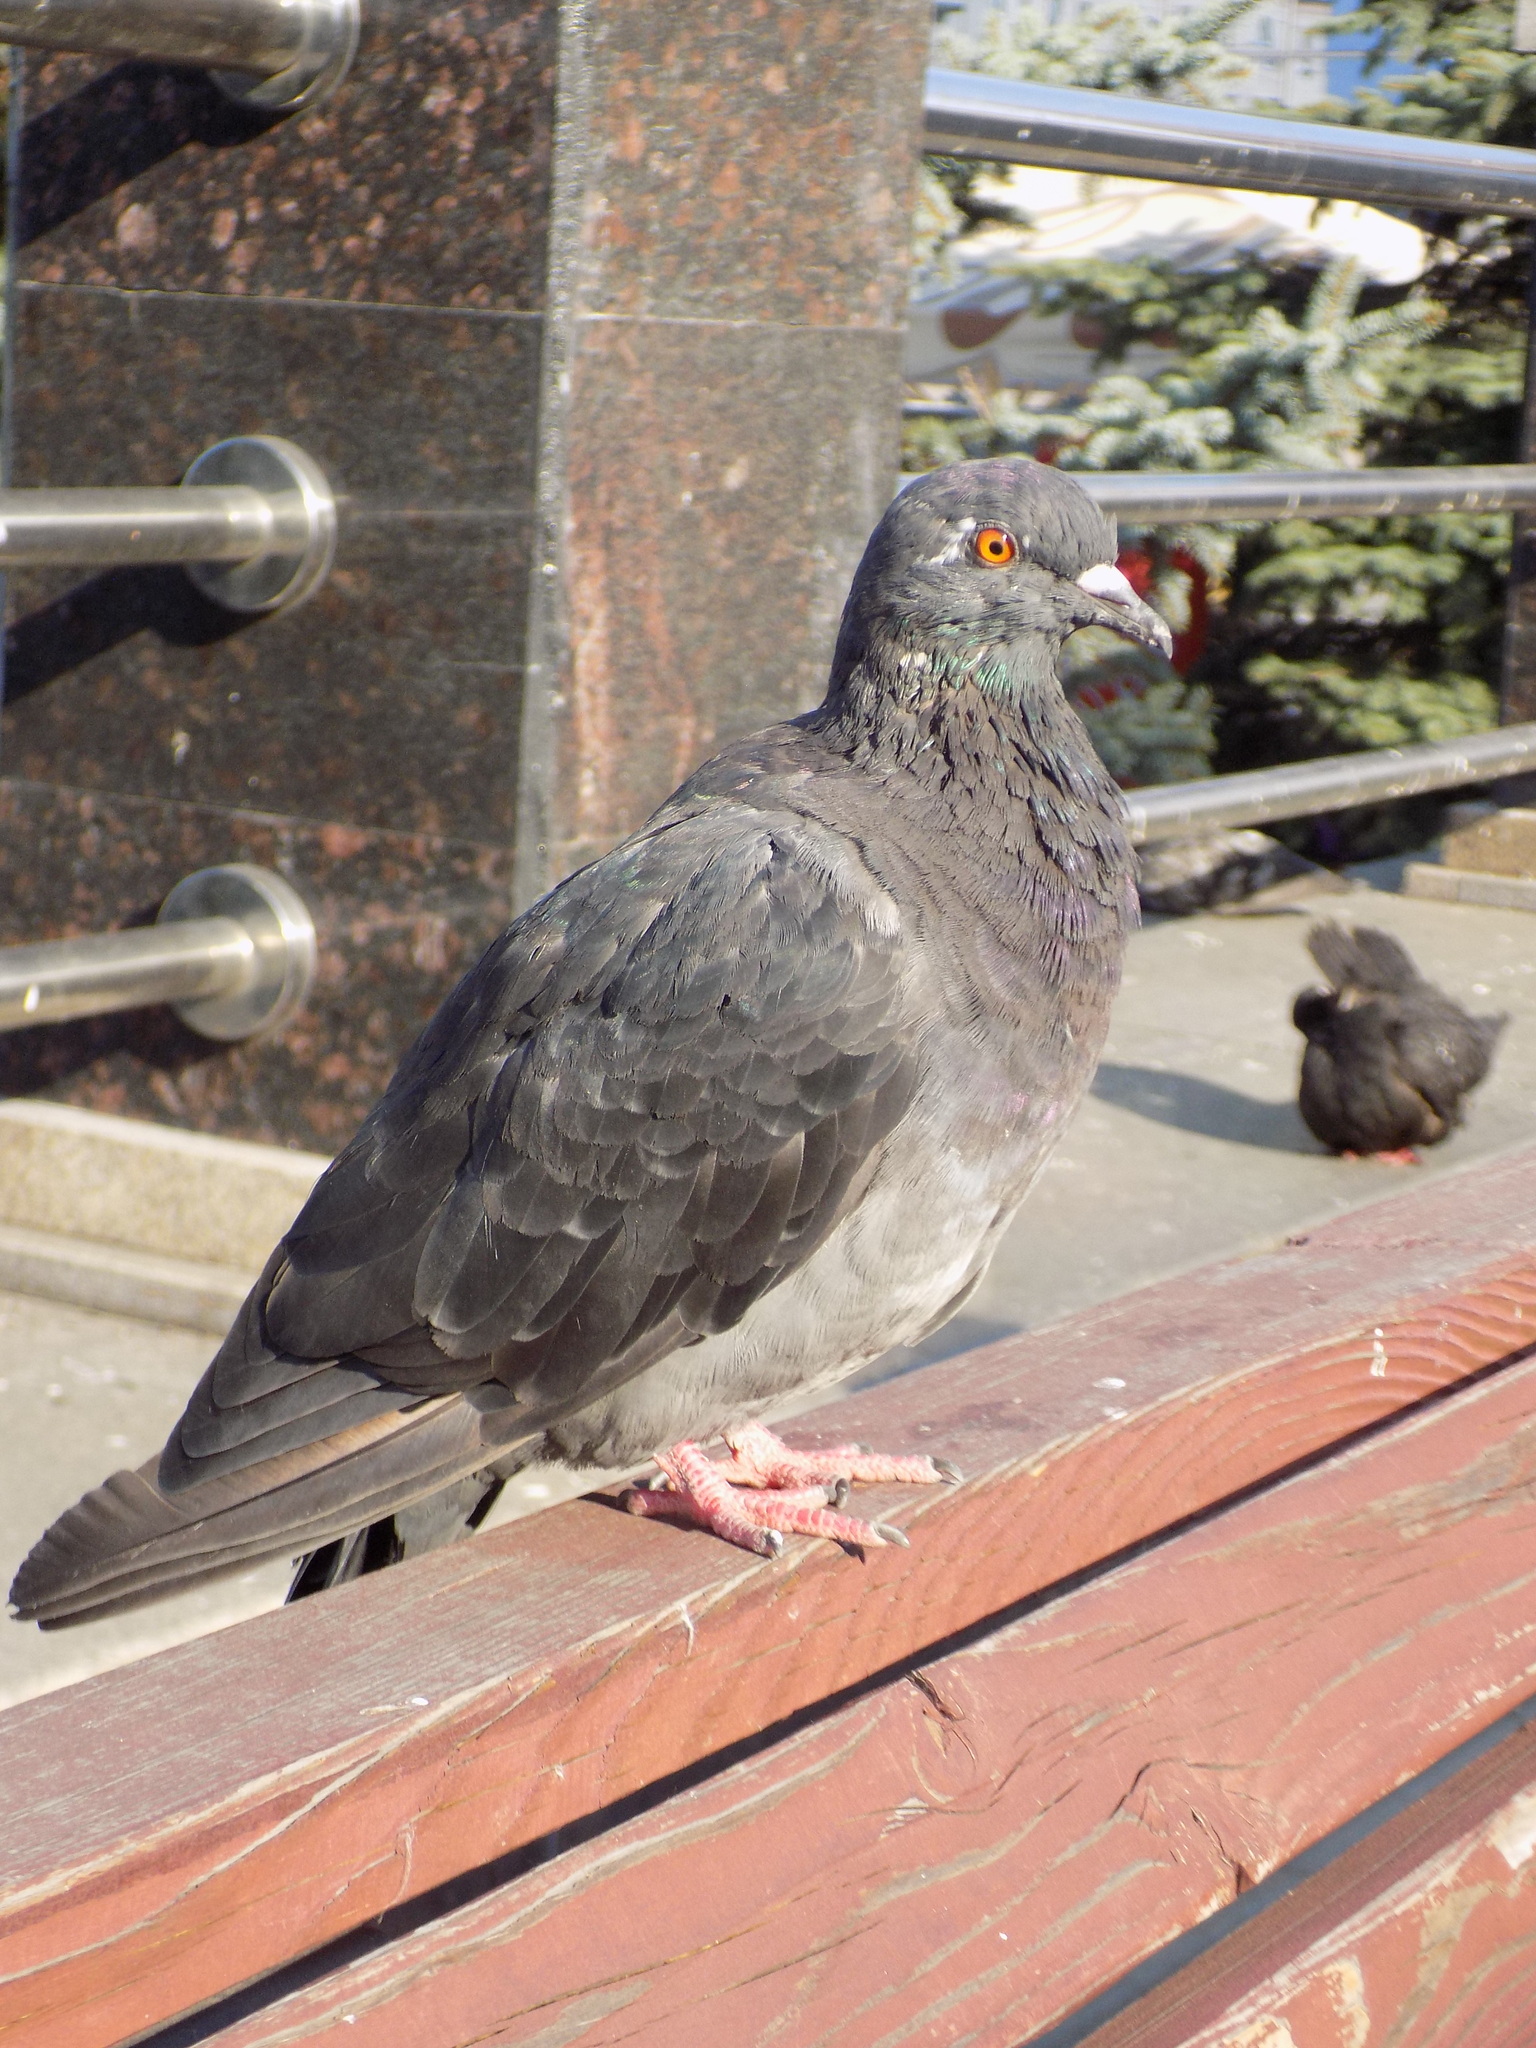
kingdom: Animalia
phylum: Chordata
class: Aves
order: Columbiformes
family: Columbidae
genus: Columba
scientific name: Columba livia
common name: Rock pigeon
